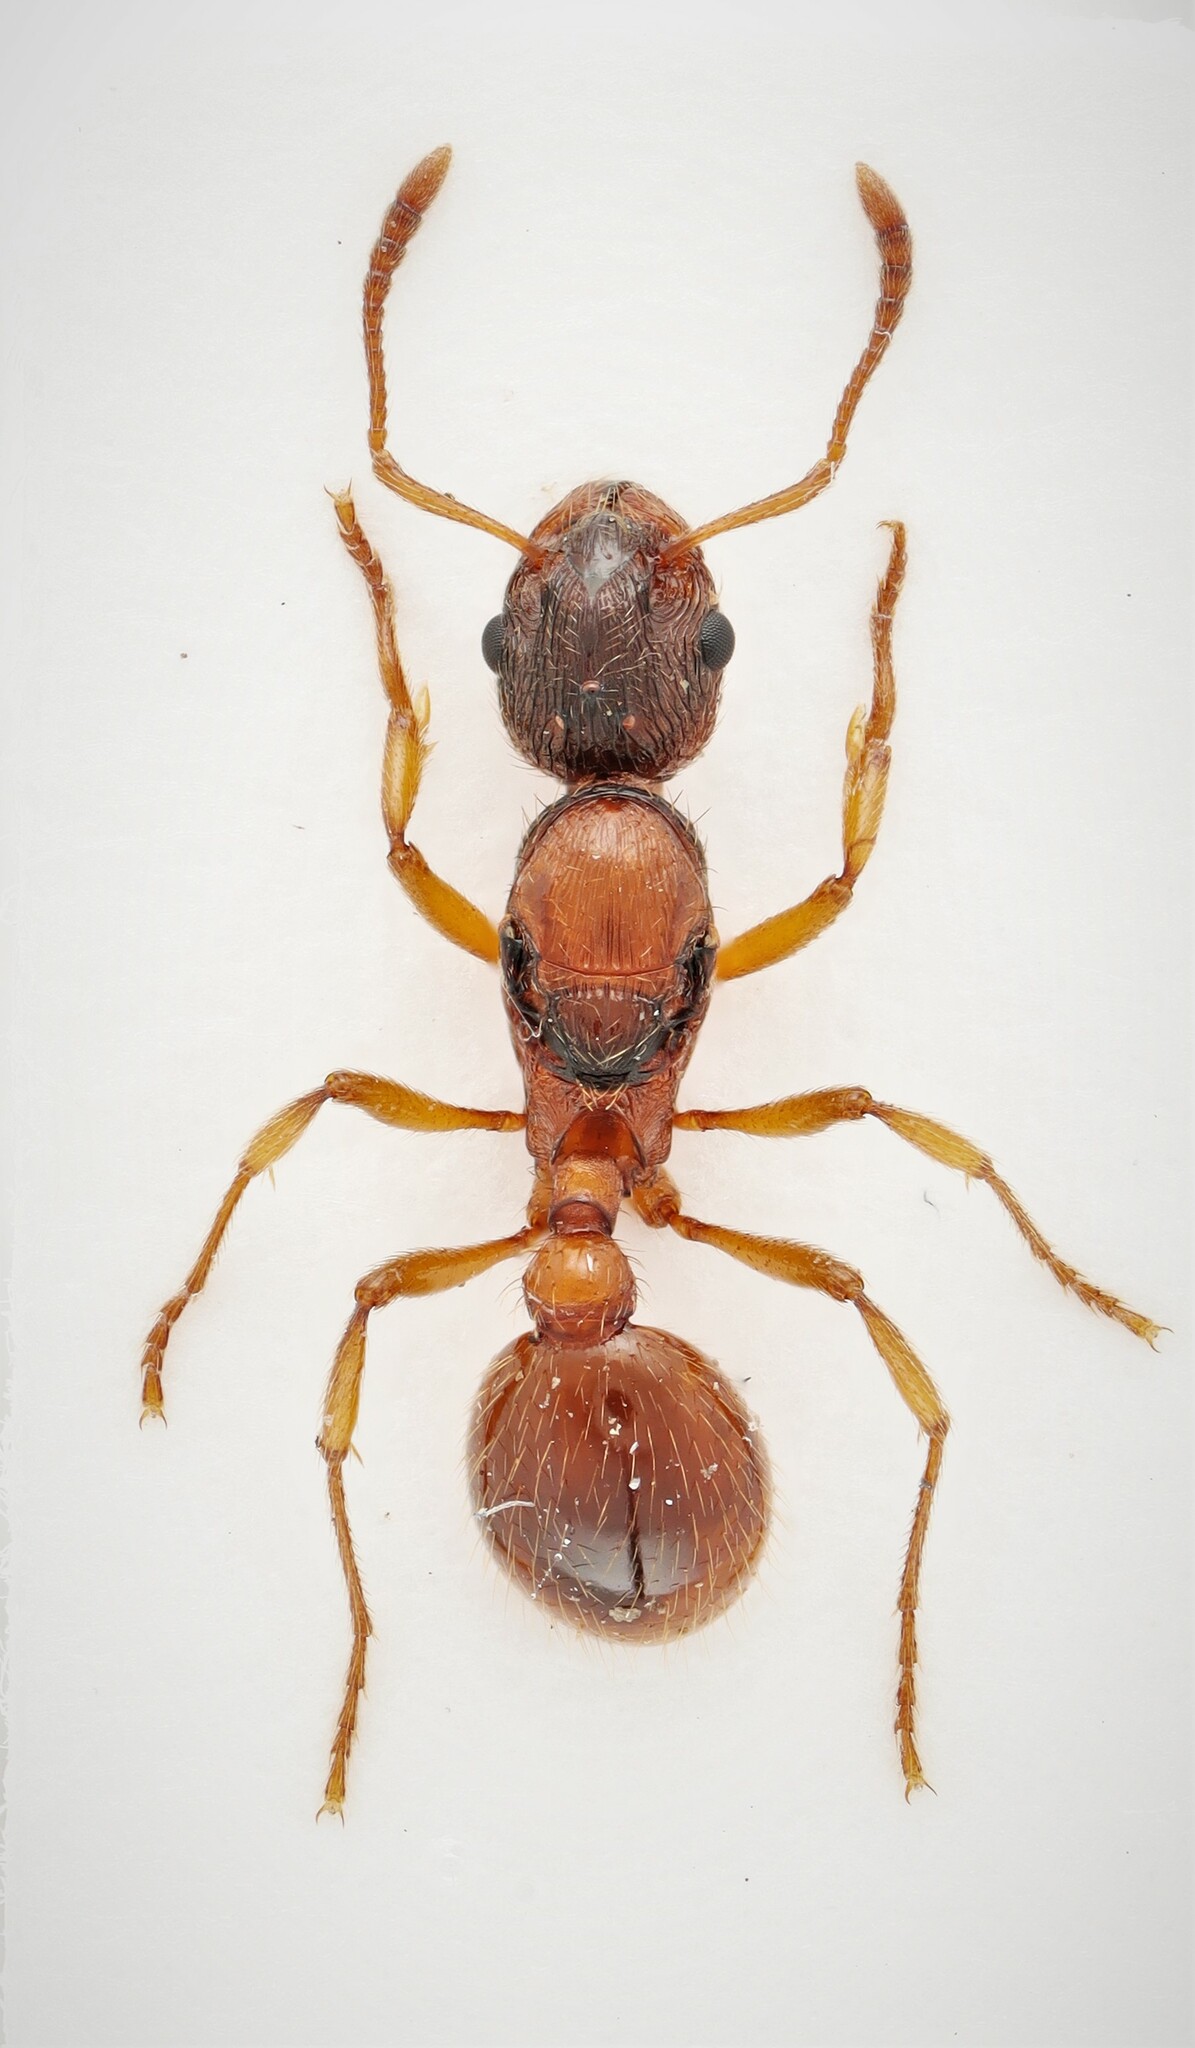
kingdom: Animalia
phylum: Arthropoda
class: Insecta
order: Hymenoptera
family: Formicidae
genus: Myrmica
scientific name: Myrmica rubra
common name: European fire ant
